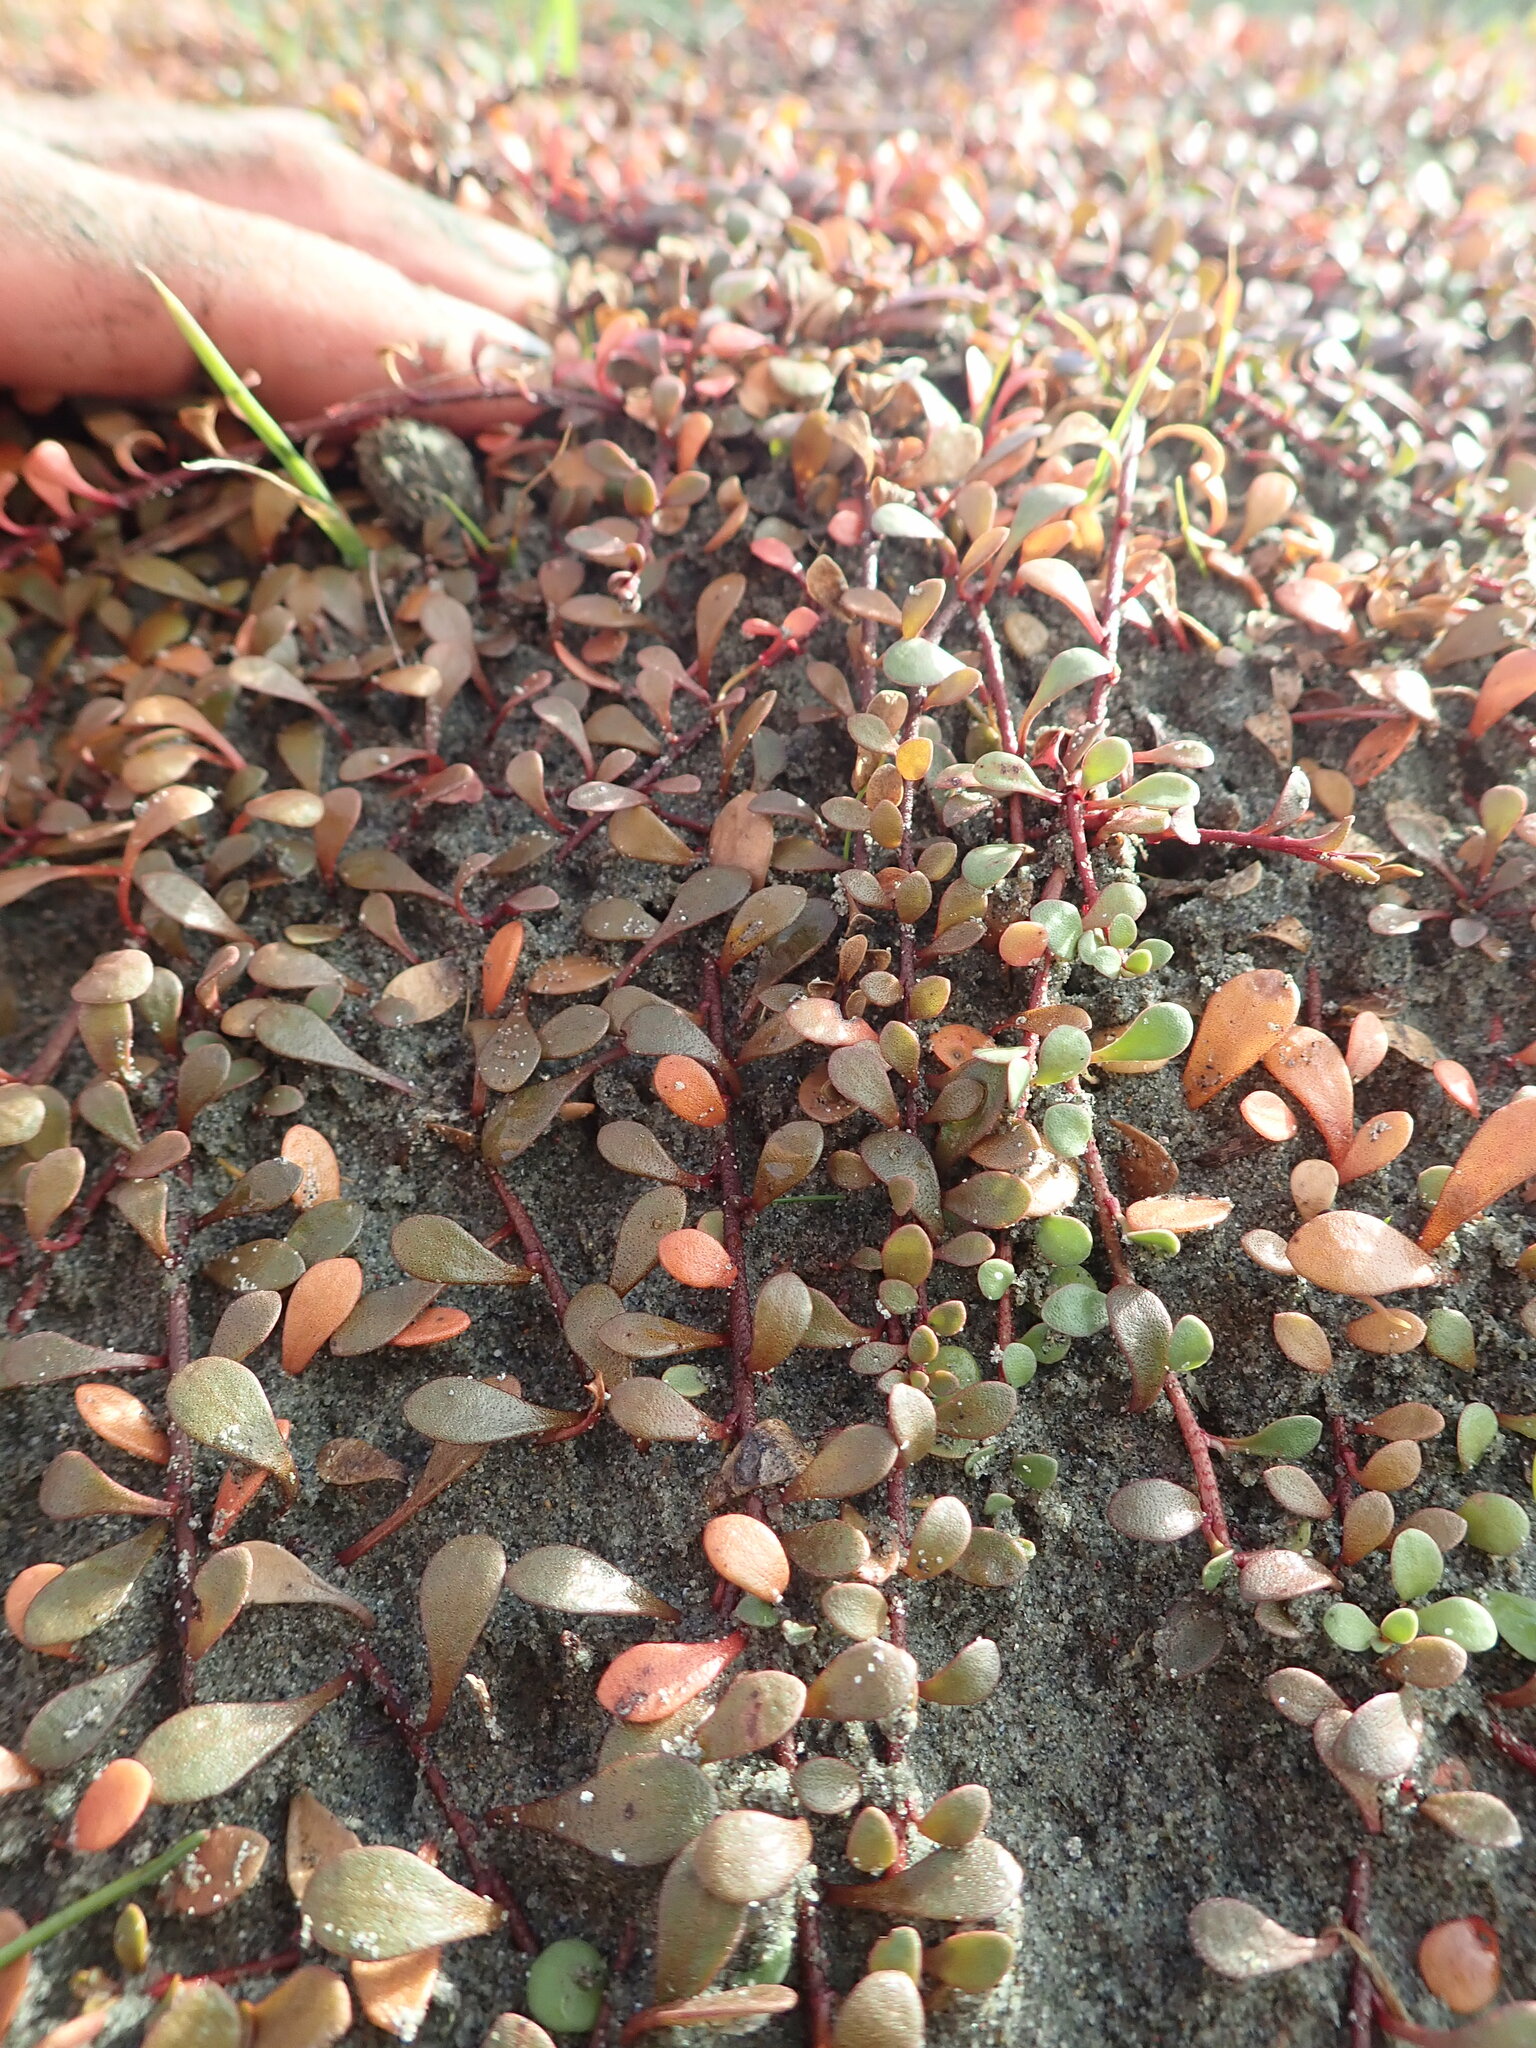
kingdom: Plantae
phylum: Tracheophyta
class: Magnoliopsida
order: Ericales
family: Primulaceae
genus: Samolus
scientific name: Samolus repens
